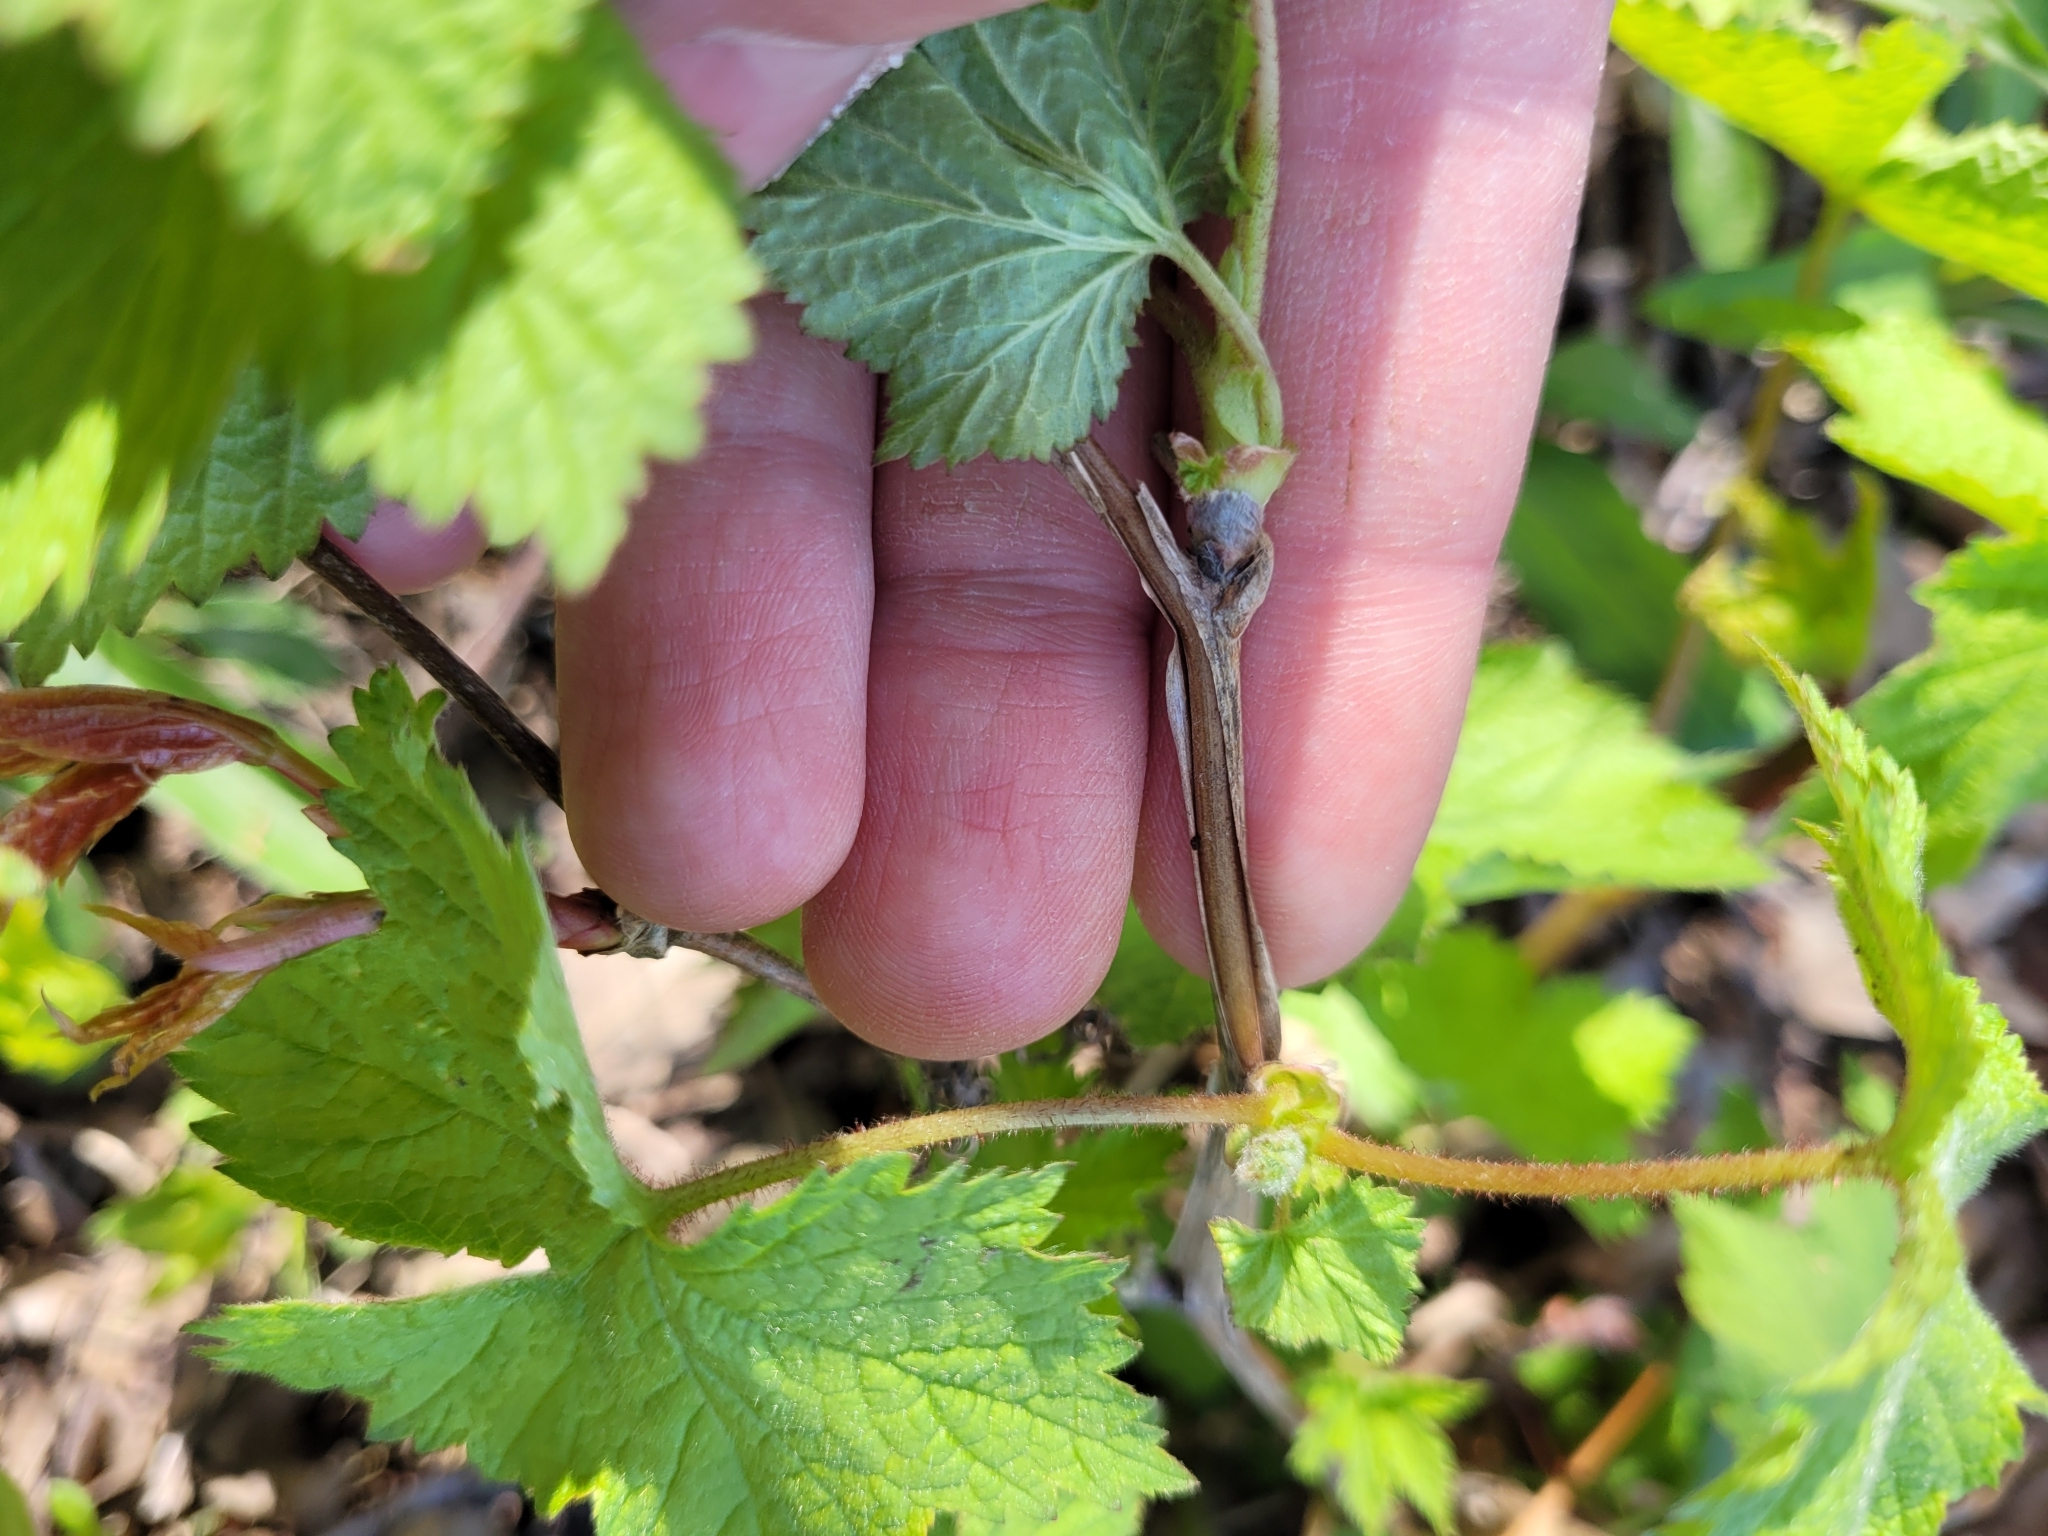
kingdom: Plantae
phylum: Tracheophyta
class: Magnoliopsida
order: Rosales
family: Rosaceae
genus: Rubus
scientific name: Rubus odoratus
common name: Purple-flowered raspberry
